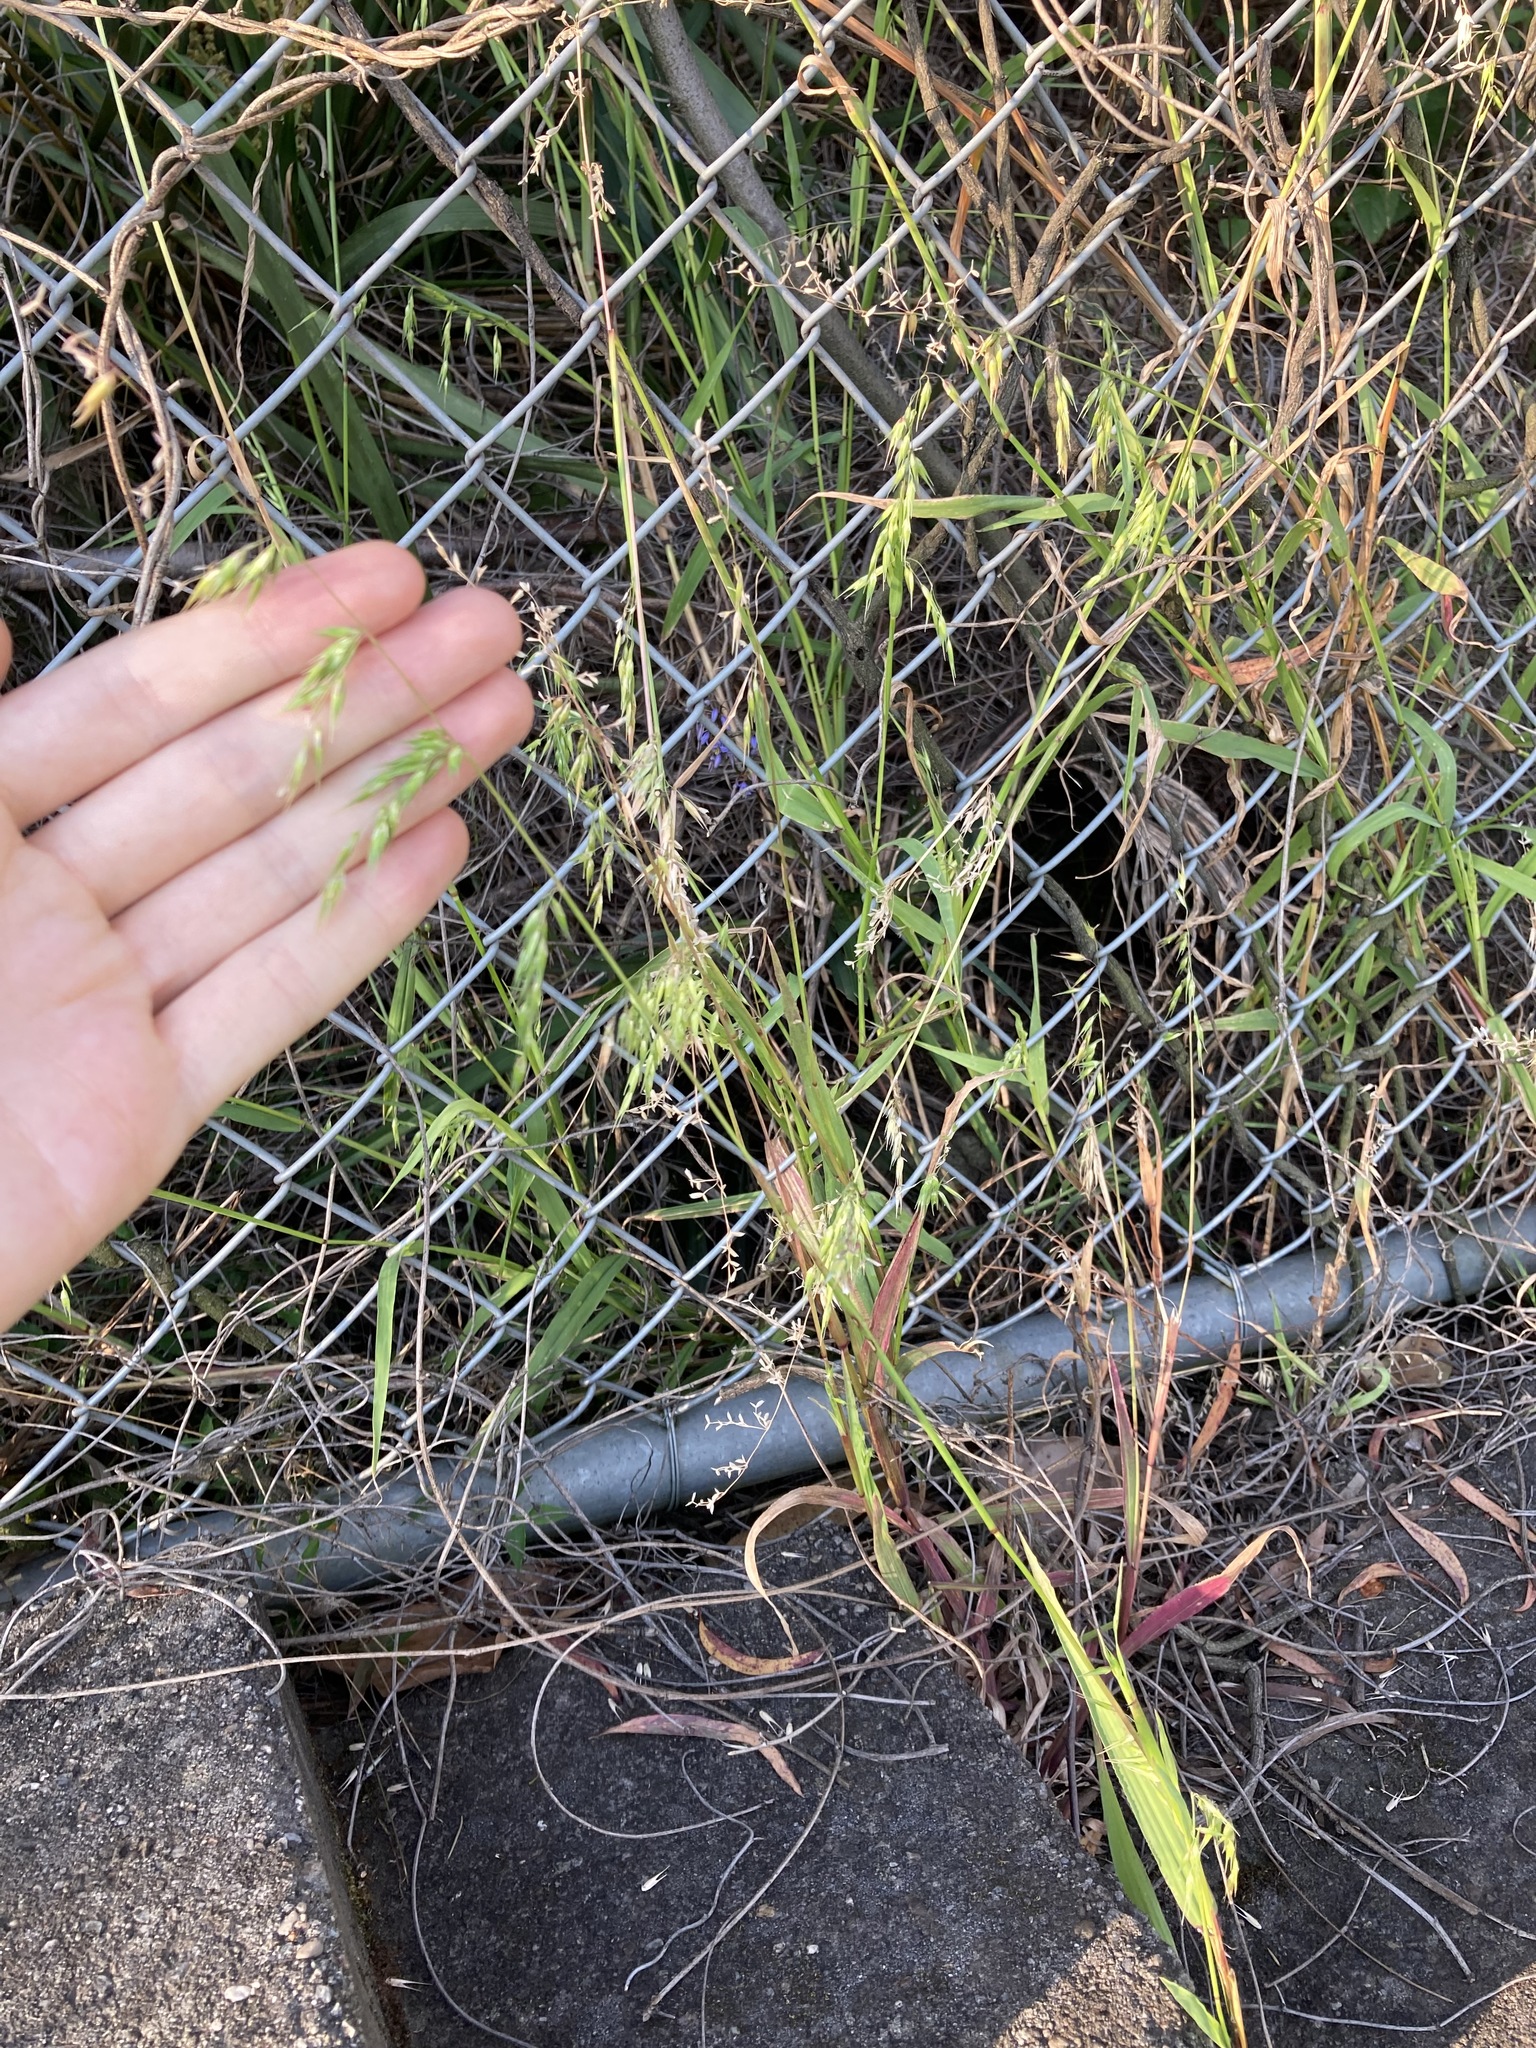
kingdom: Plantae
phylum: Tracheophyta
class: Liliopsida
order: Poales
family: Poaceae
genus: Ehrharta
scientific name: Ehrharta longiflora
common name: Longflowered veldtgrass
